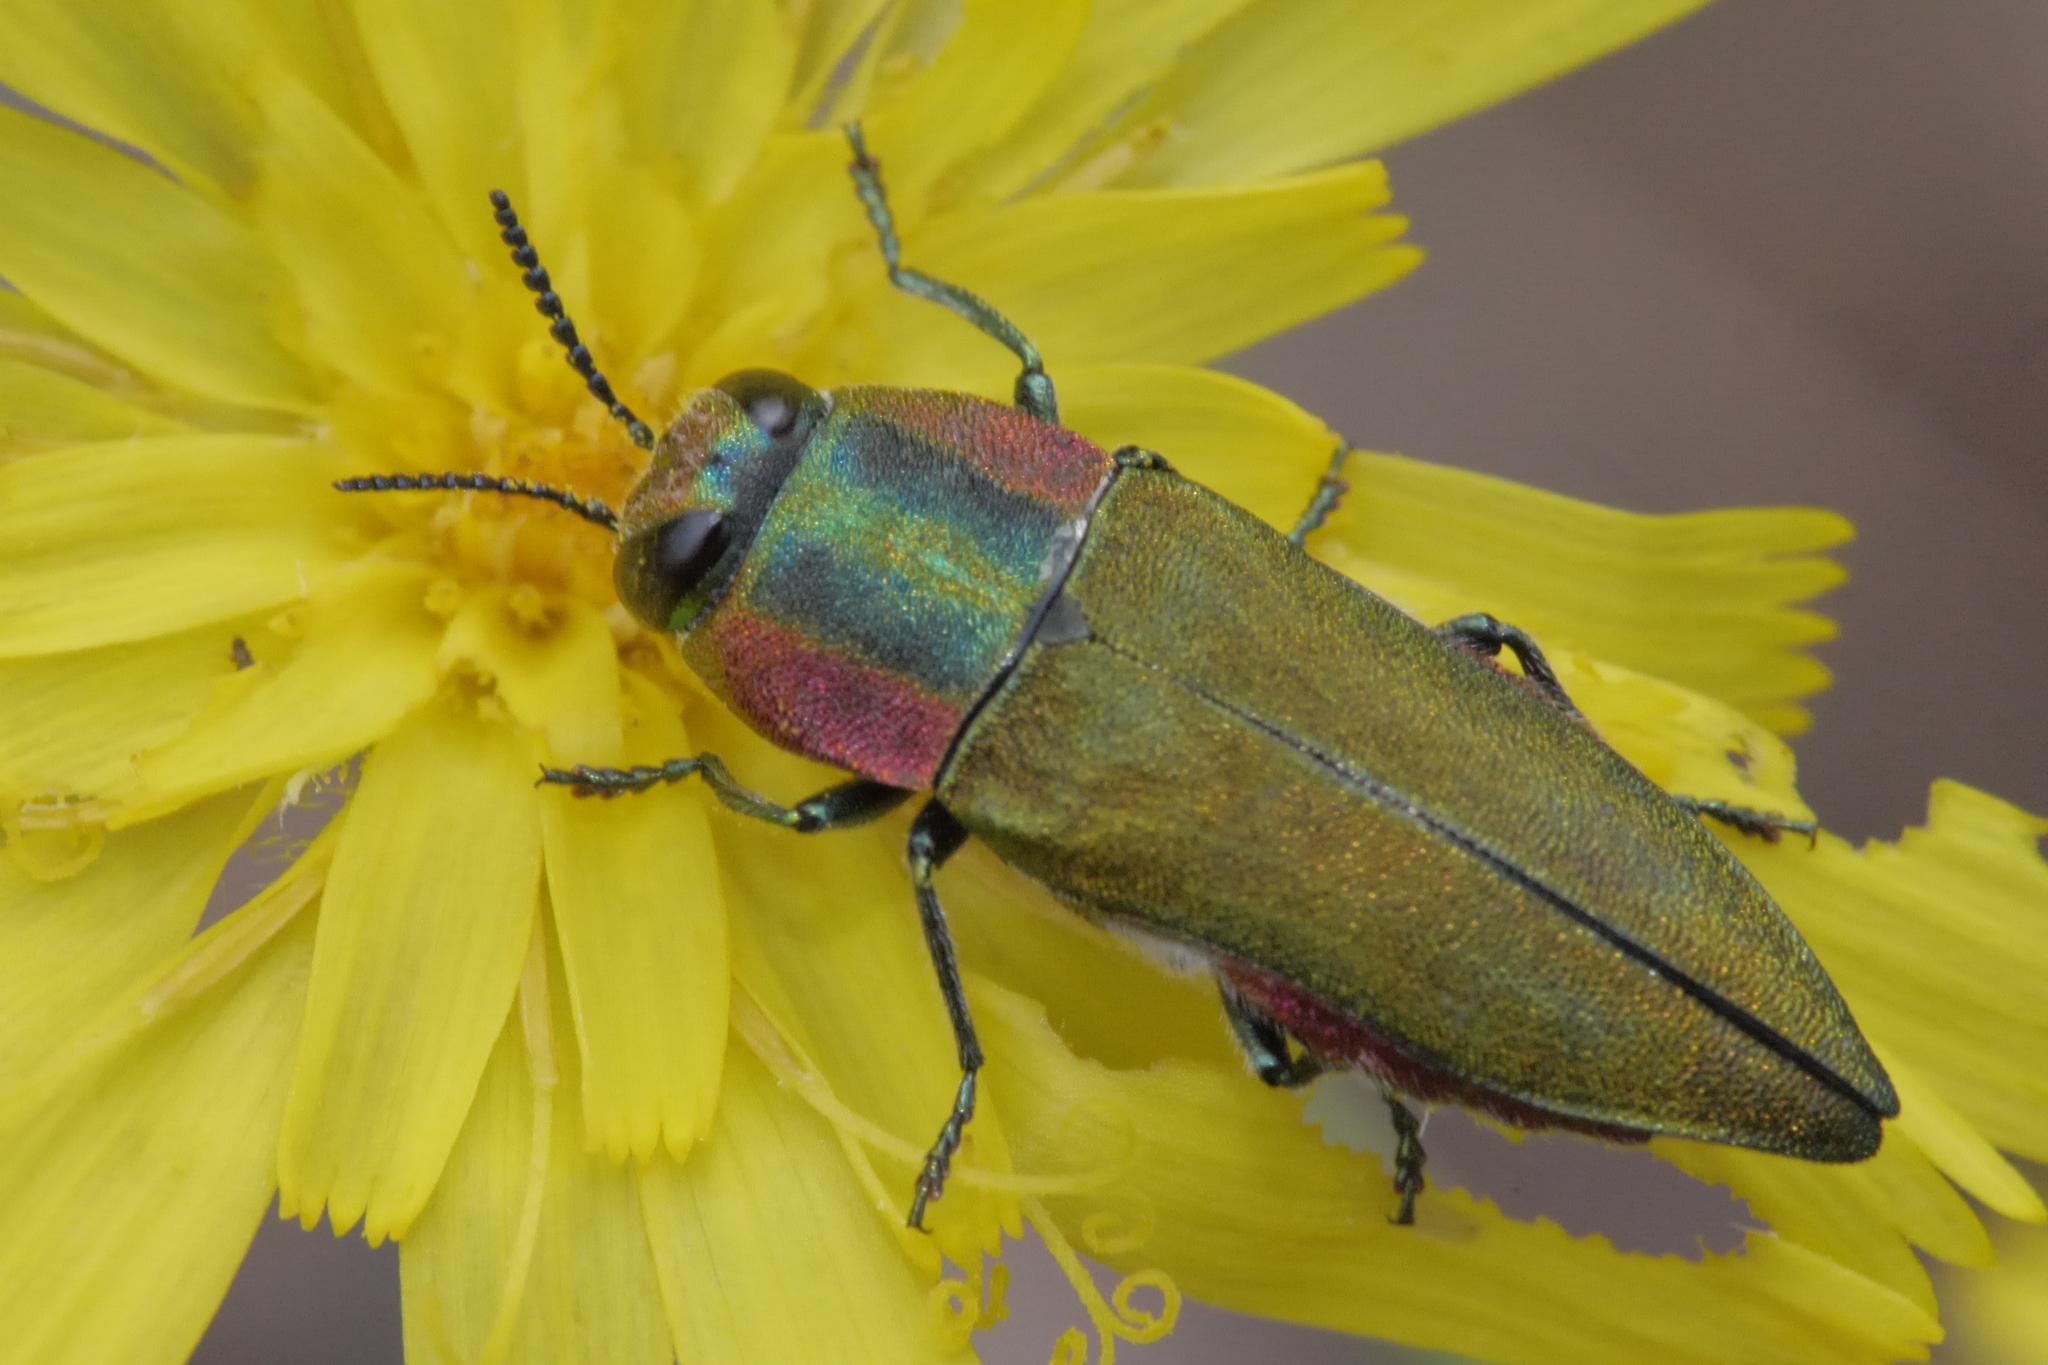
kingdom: Animalia
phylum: Arthropoda
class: Insecta
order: Coleoptera
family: Buprestidae
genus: Anthaxia
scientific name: Anthaxia hungarica
